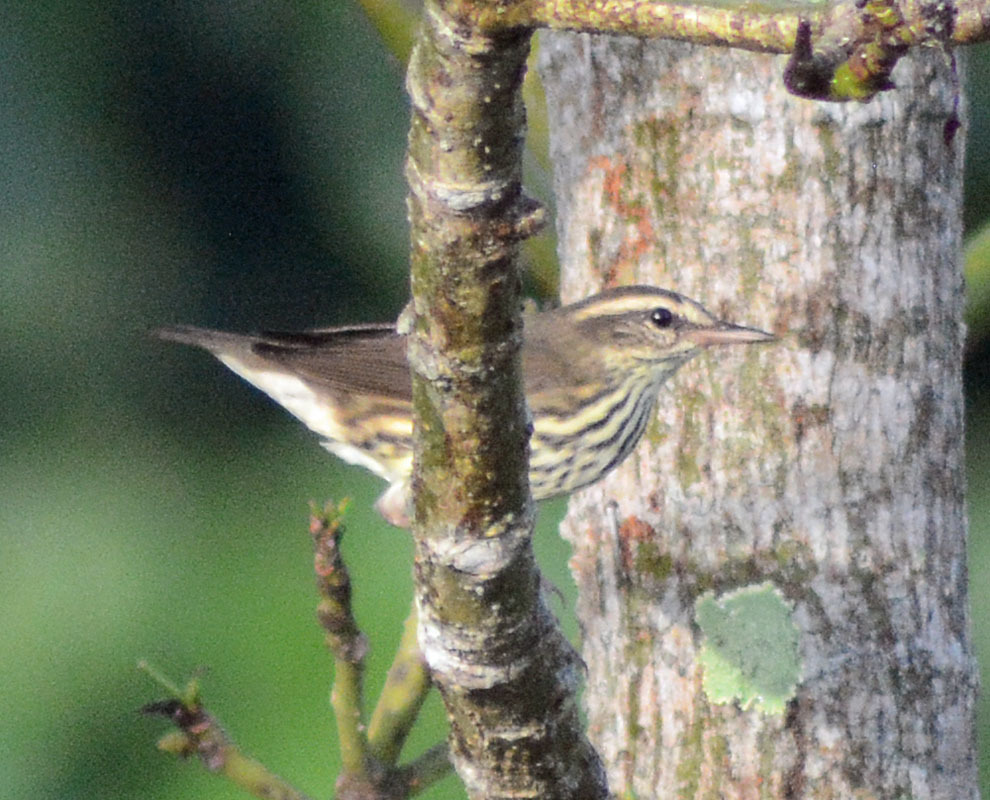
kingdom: Animalia
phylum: Chordata
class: Aves
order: Passeriformes
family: Parulidae
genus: Parkesia
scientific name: Parkesia noveboracensis
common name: Northern waterthrush
